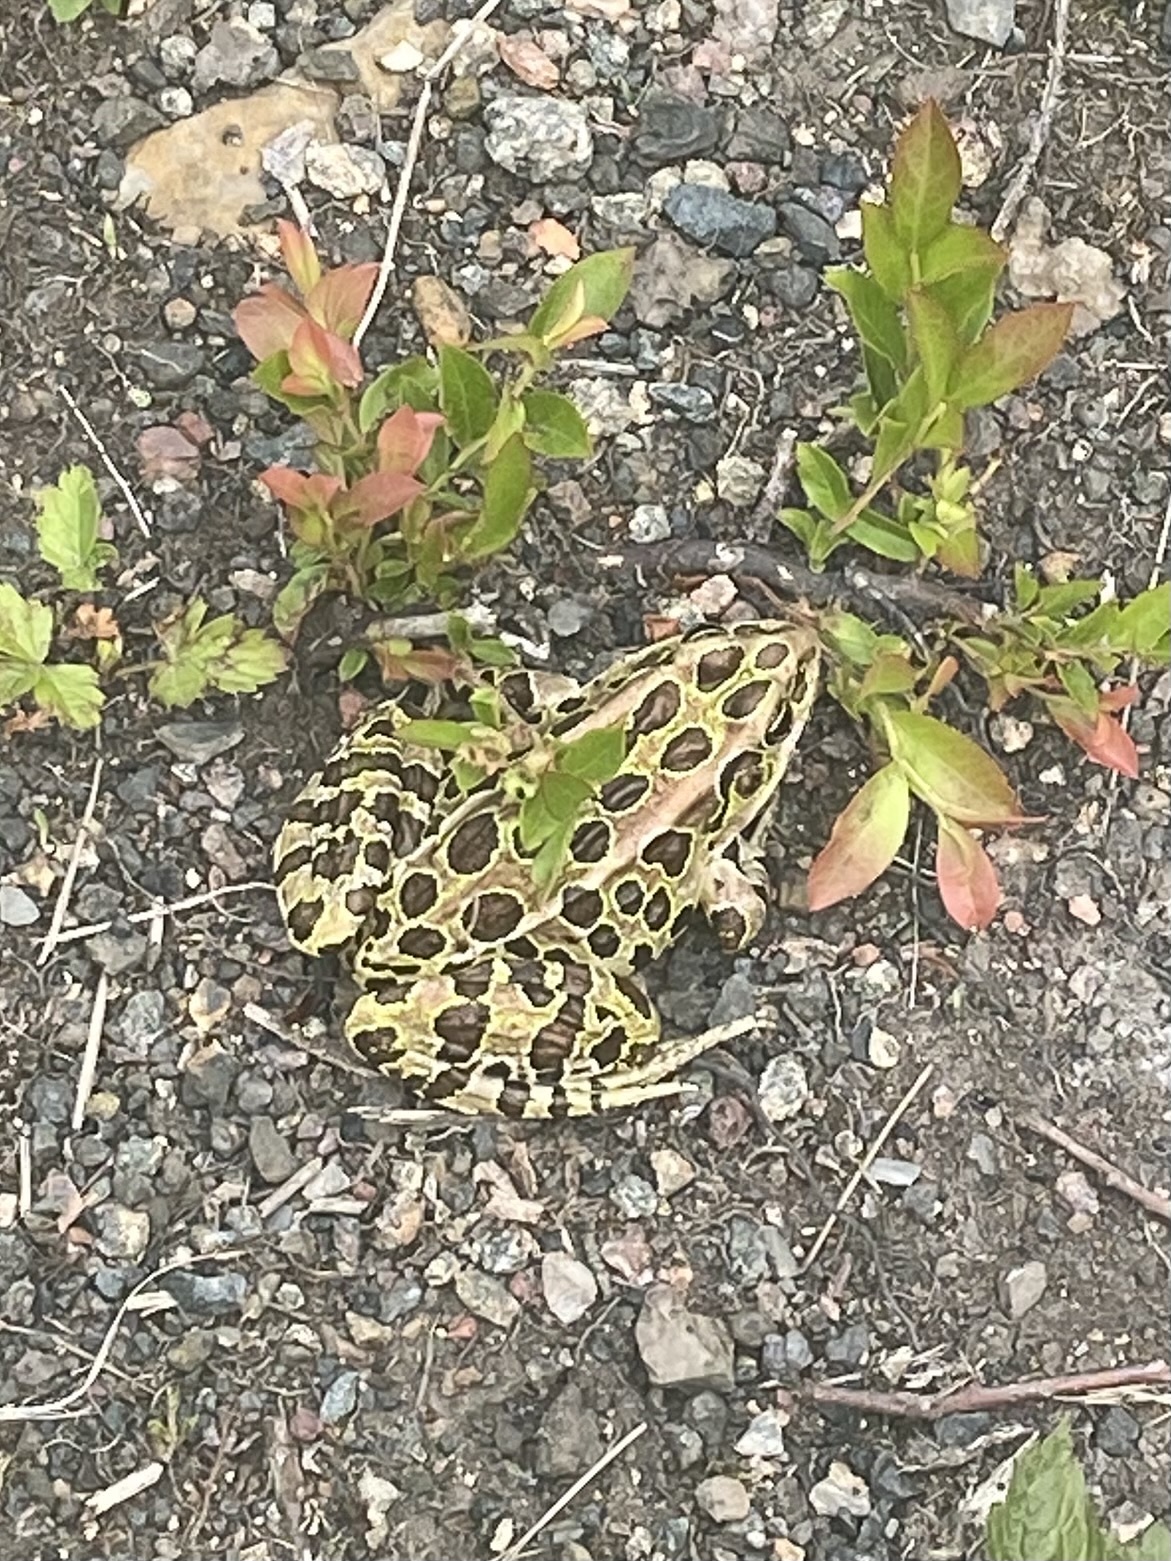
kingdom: Animalia
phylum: Chordata
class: Amphibia
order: Anura
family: Ranidae
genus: Lithobates
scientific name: Lithobates pipiens
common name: Northern leopard frog
